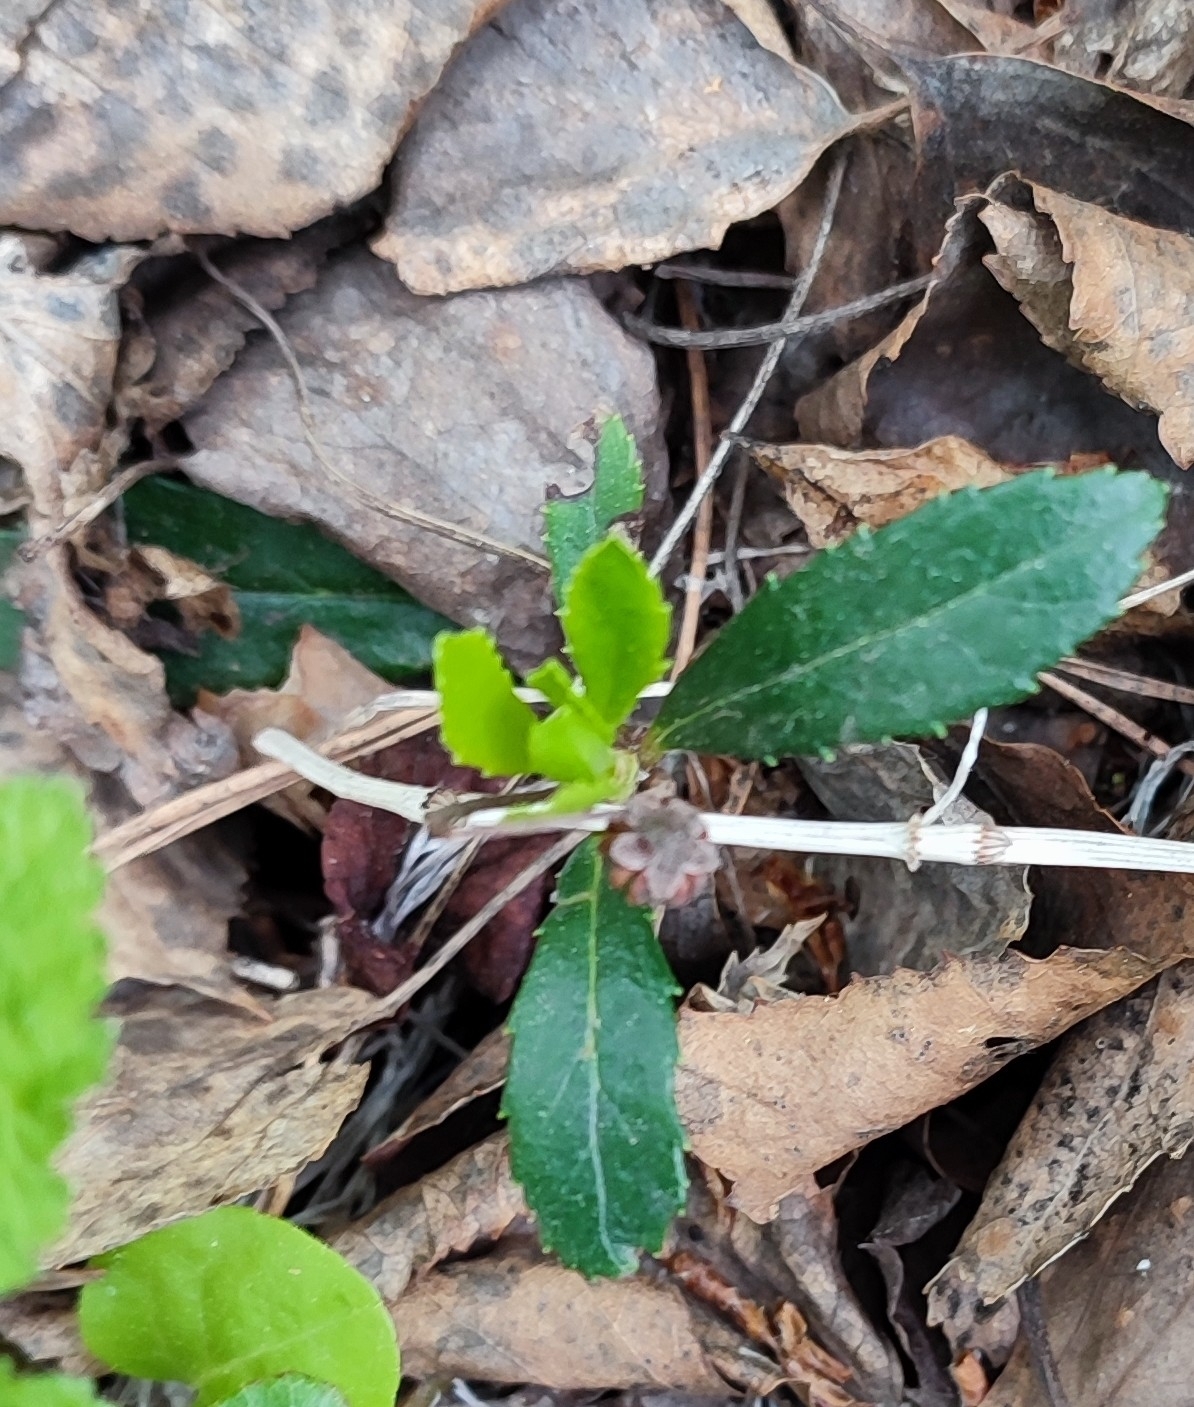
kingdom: Plantae
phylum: Tracheophyta
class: Magnoliopsida
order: Ericales
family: Ericaceae
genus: Chimaphila
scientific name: Chimaphila umbellata
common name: Pipsissewa
